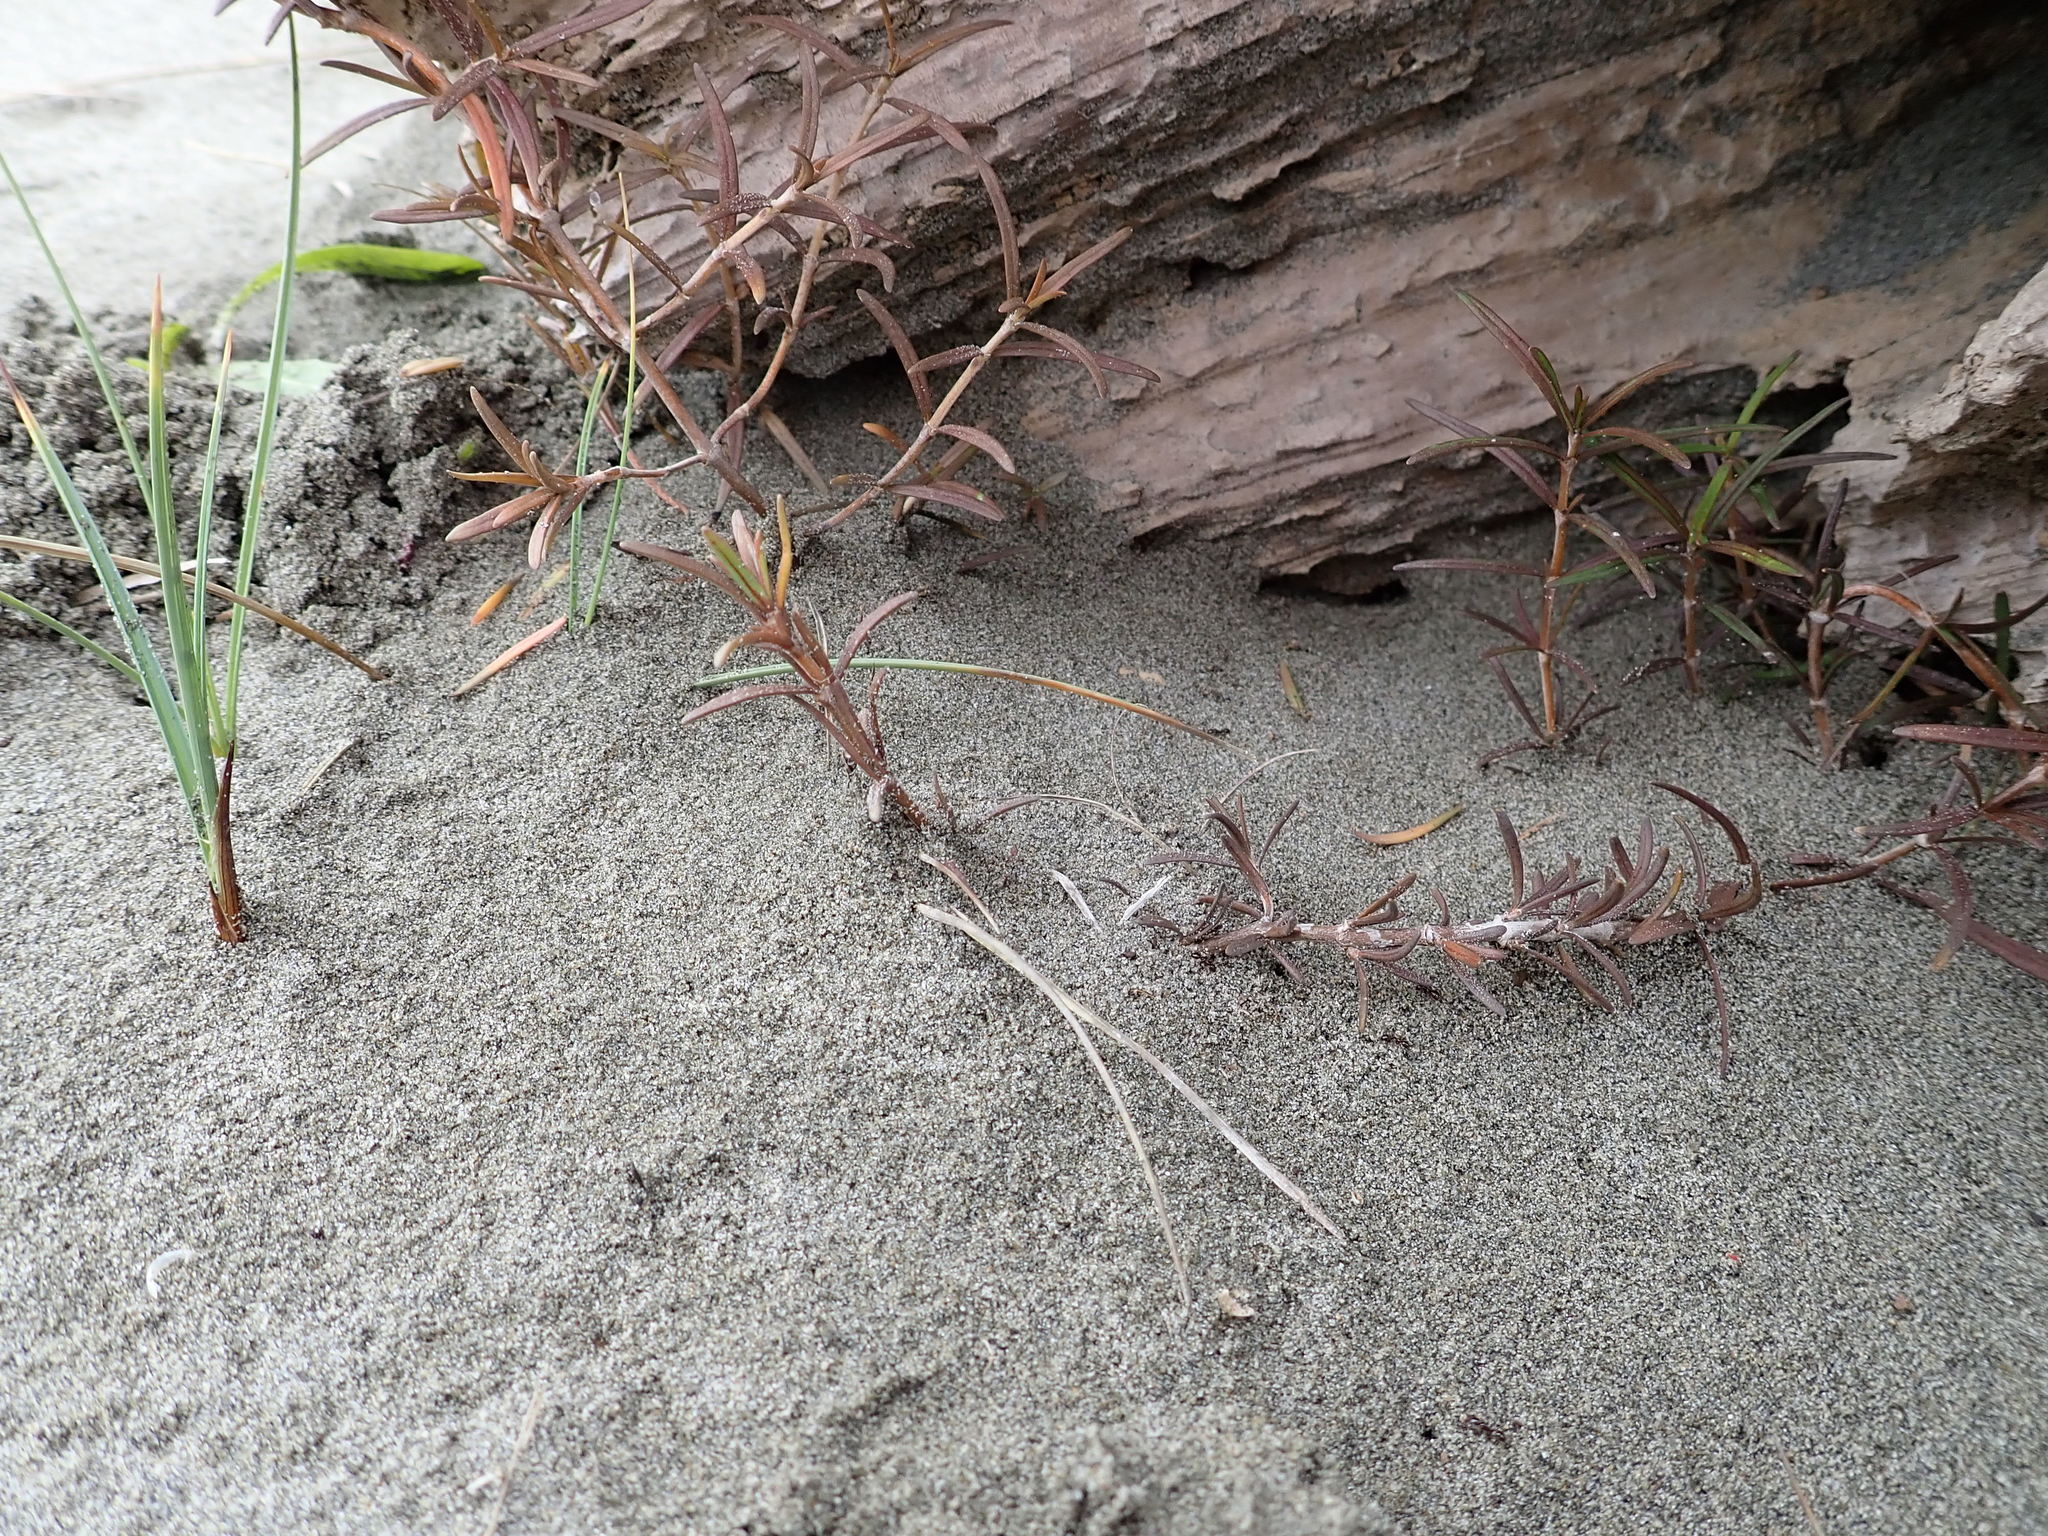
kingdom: Plantae
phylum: Tracheophyta
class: Magnoliopsida
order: Gentianales
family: Rubiaceae
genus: Coprosma
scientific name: Coprosma acerosa
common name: Sand coprosma
